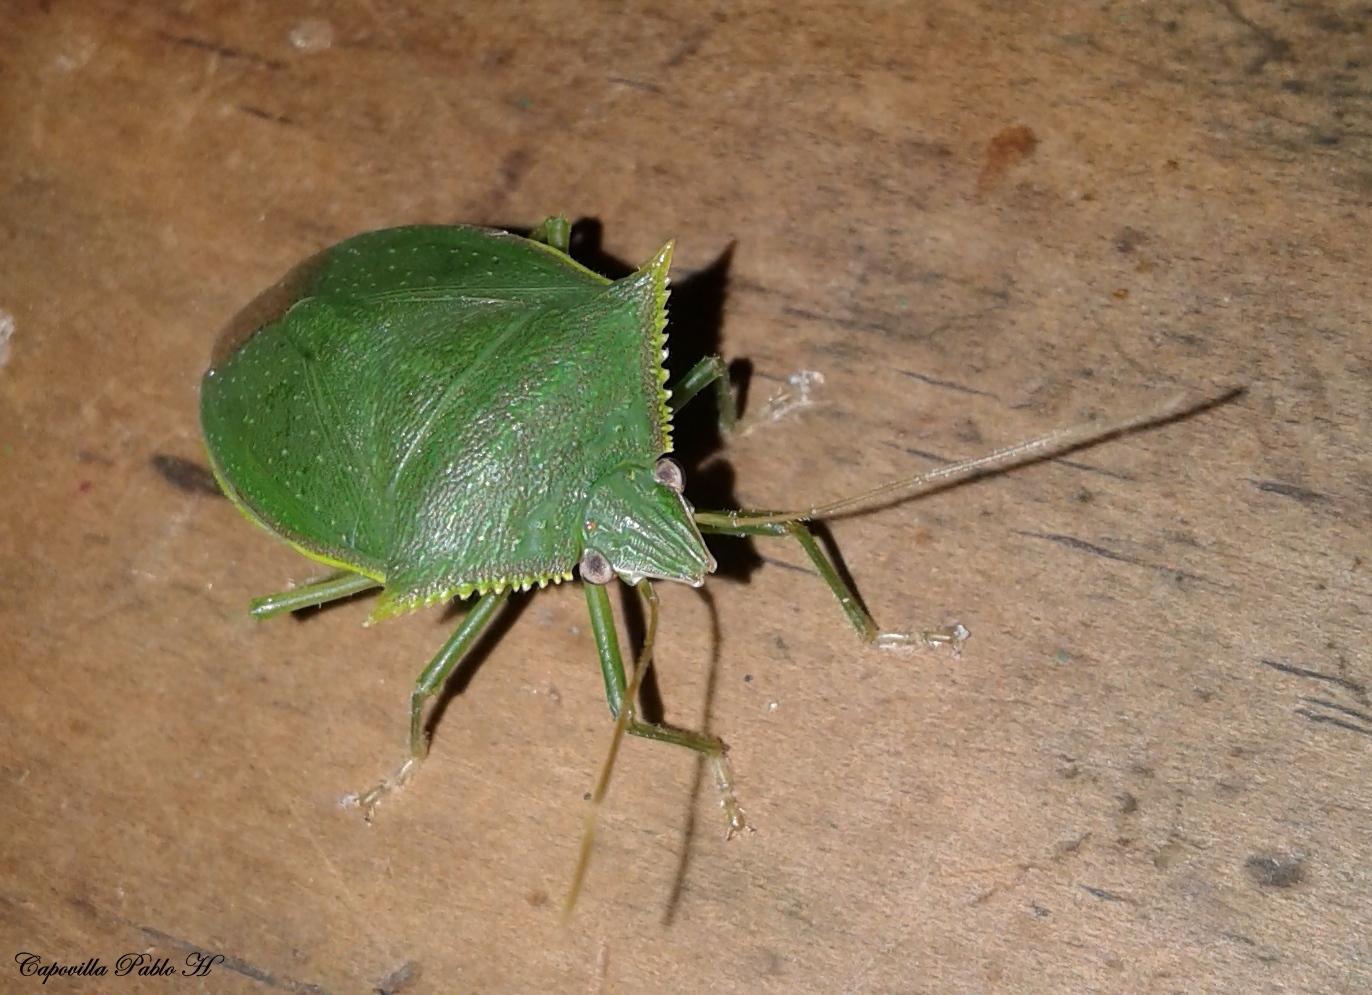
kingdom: Animalia
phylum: Arthropoda
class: Insecta
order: Hemiptera
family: Pentatomidae
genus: Loxa
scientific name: Loxa
